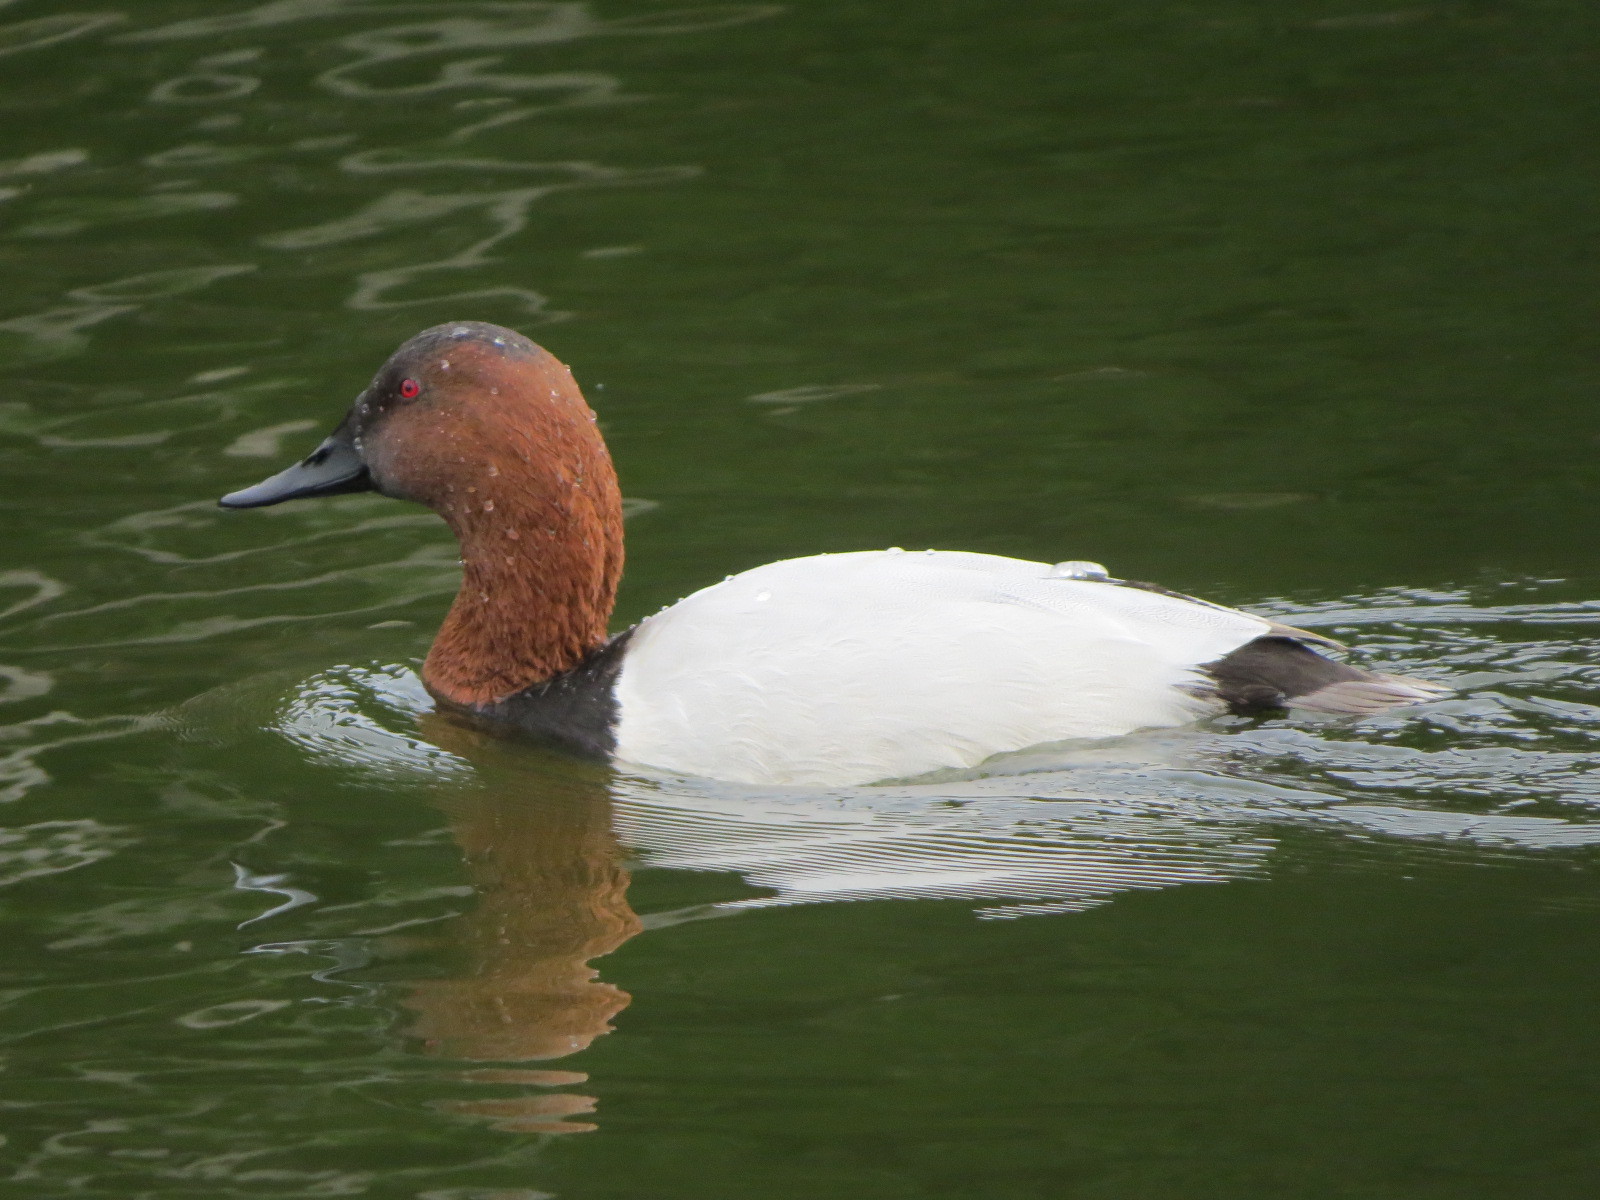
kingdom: Animalia
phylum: Chordata
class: Aves
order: Anseriformes
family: Anatidae
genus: Aythya
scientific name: Aythya valisineria
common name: Canvasback
